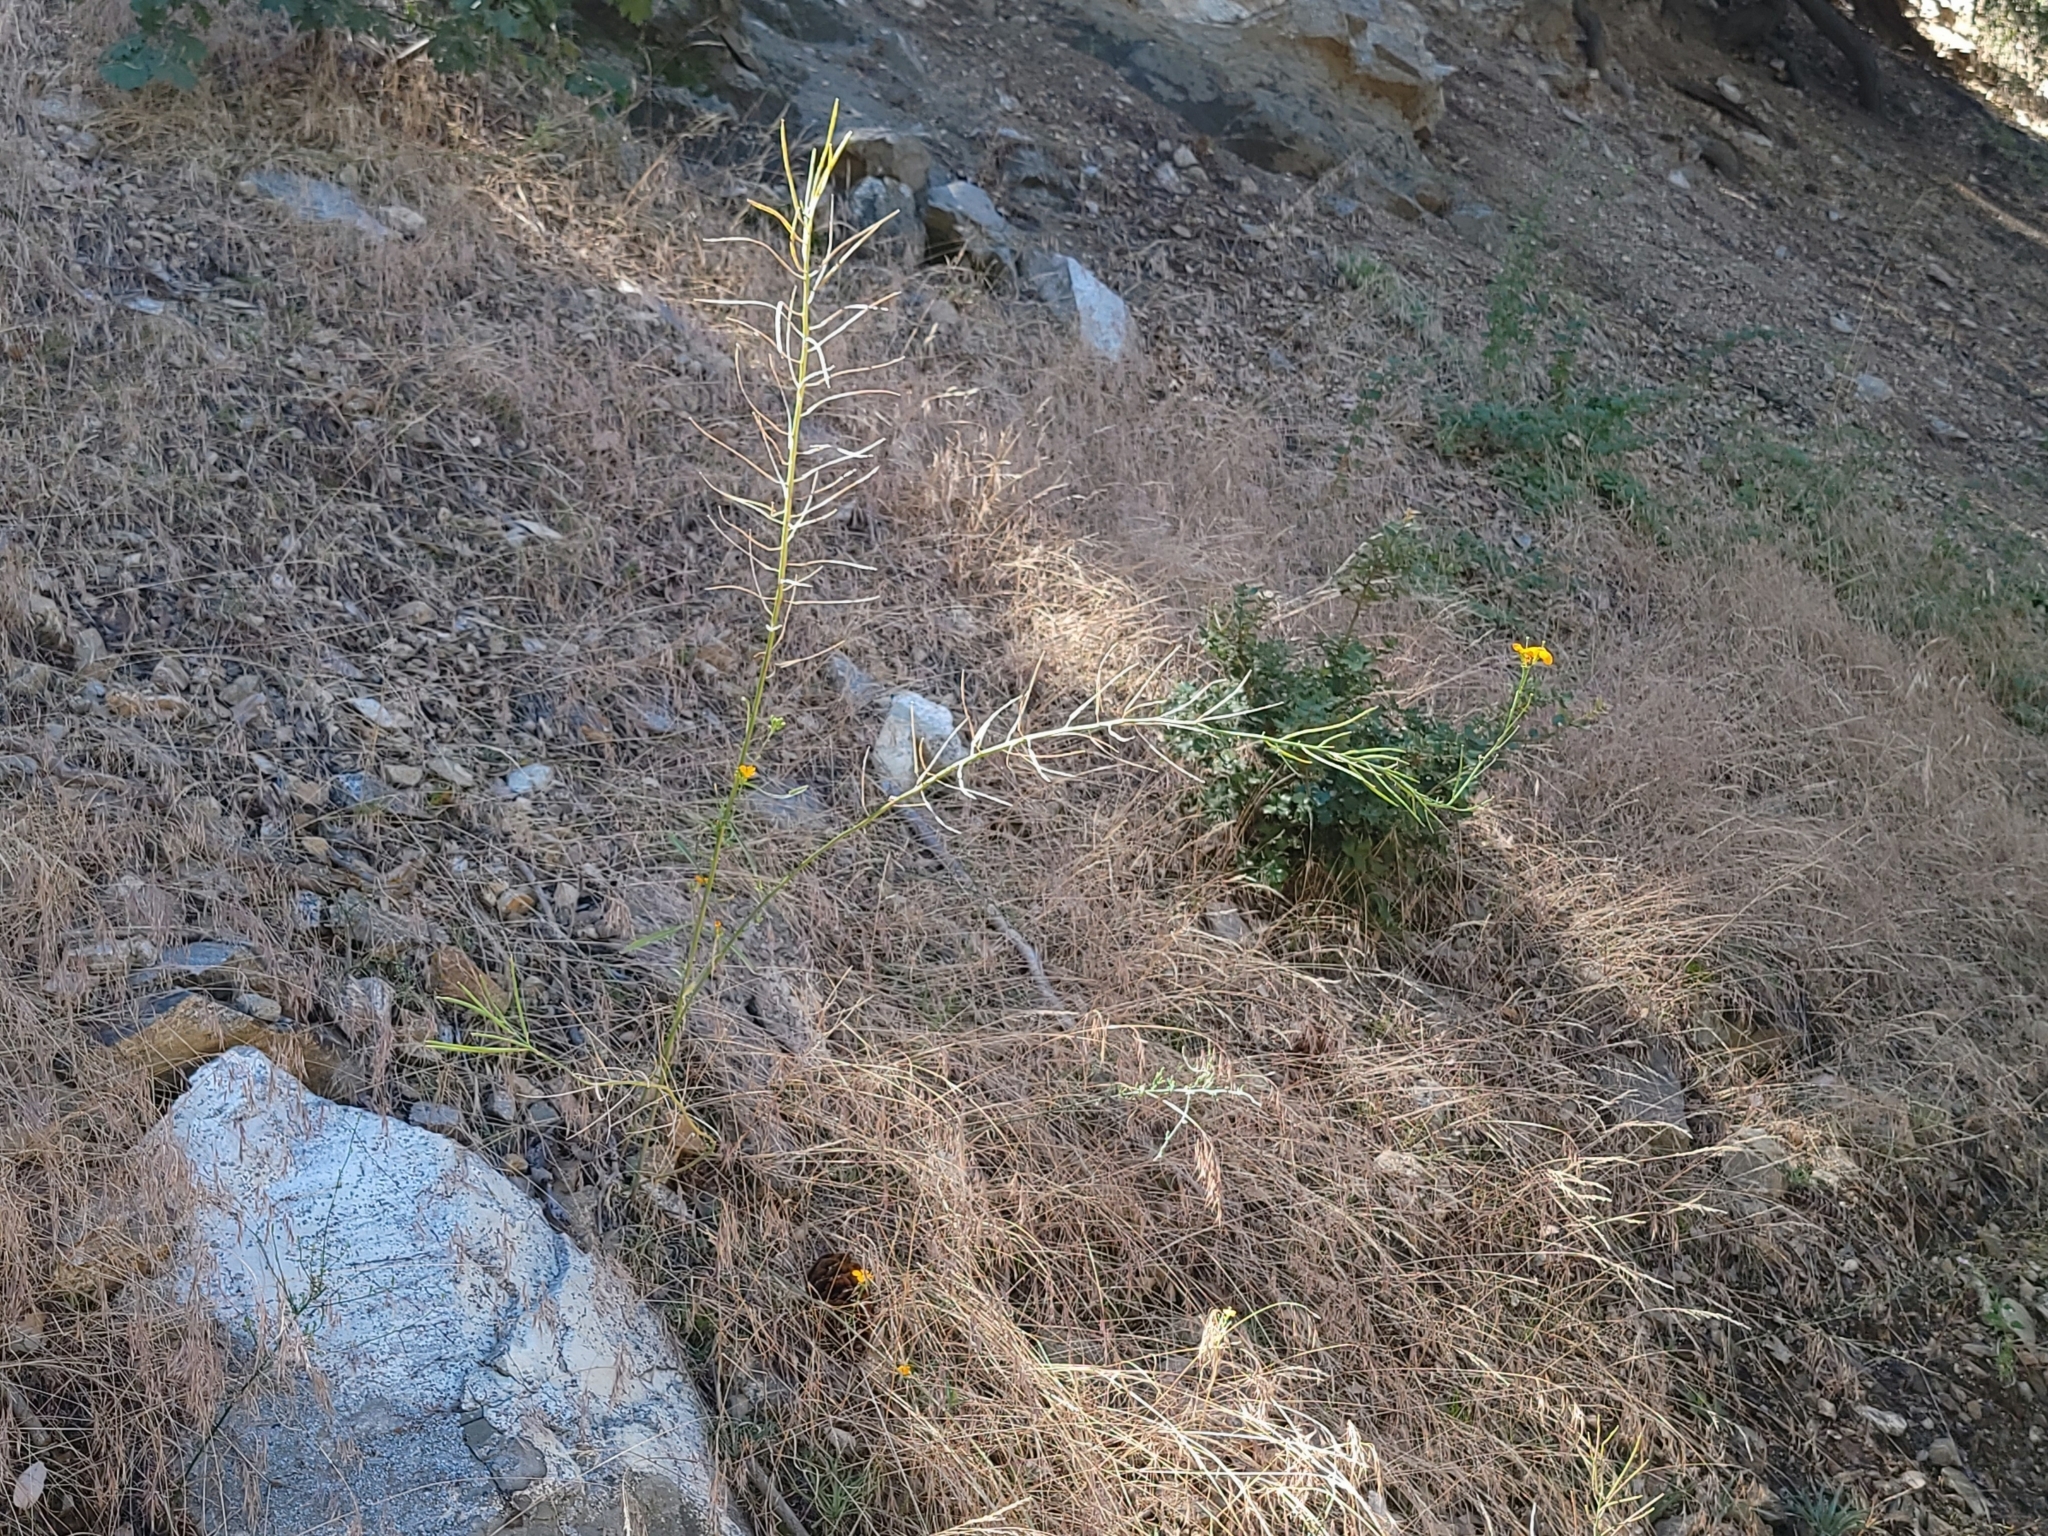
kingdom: Plantae
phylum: Tracheophyta
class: Magnoliopsida
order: Brassicales
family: Brassicaceae
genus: Erysimum
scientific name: Erysimum capitatum
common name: Western wallflower
